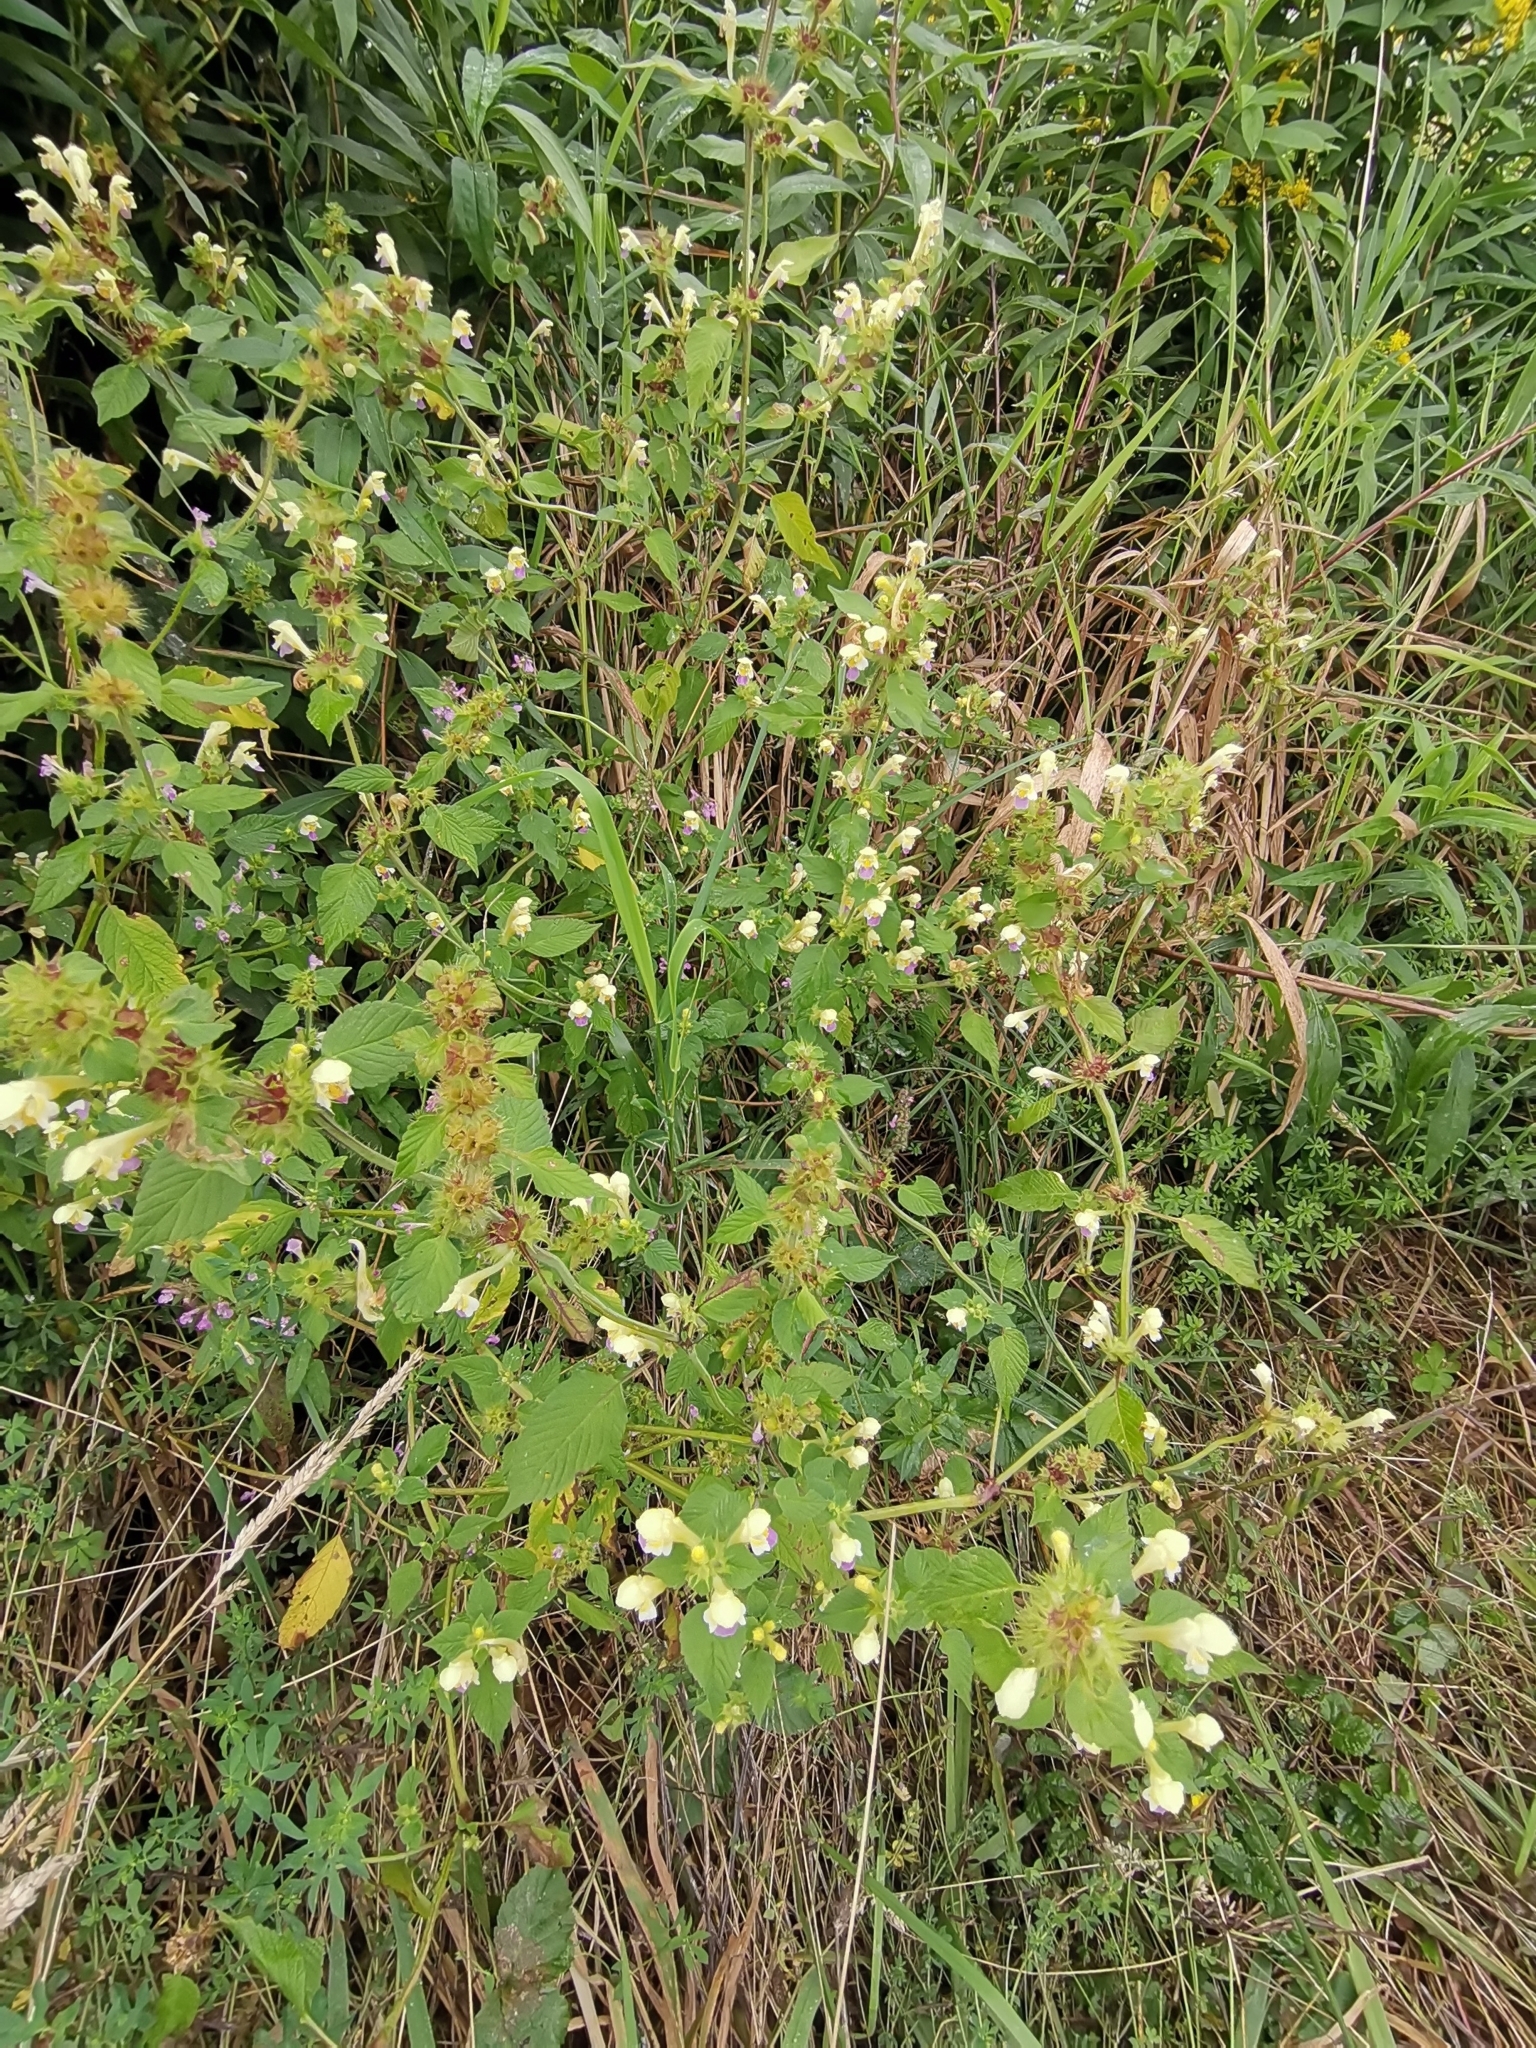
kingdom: Plantae
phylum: Tracheophyta
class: Magnoliopsida
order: Lamiales
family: Lamiaceae
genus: Galeopsis
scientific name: Galeopsis speciosa
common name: Large-flowered hemp-nettle
